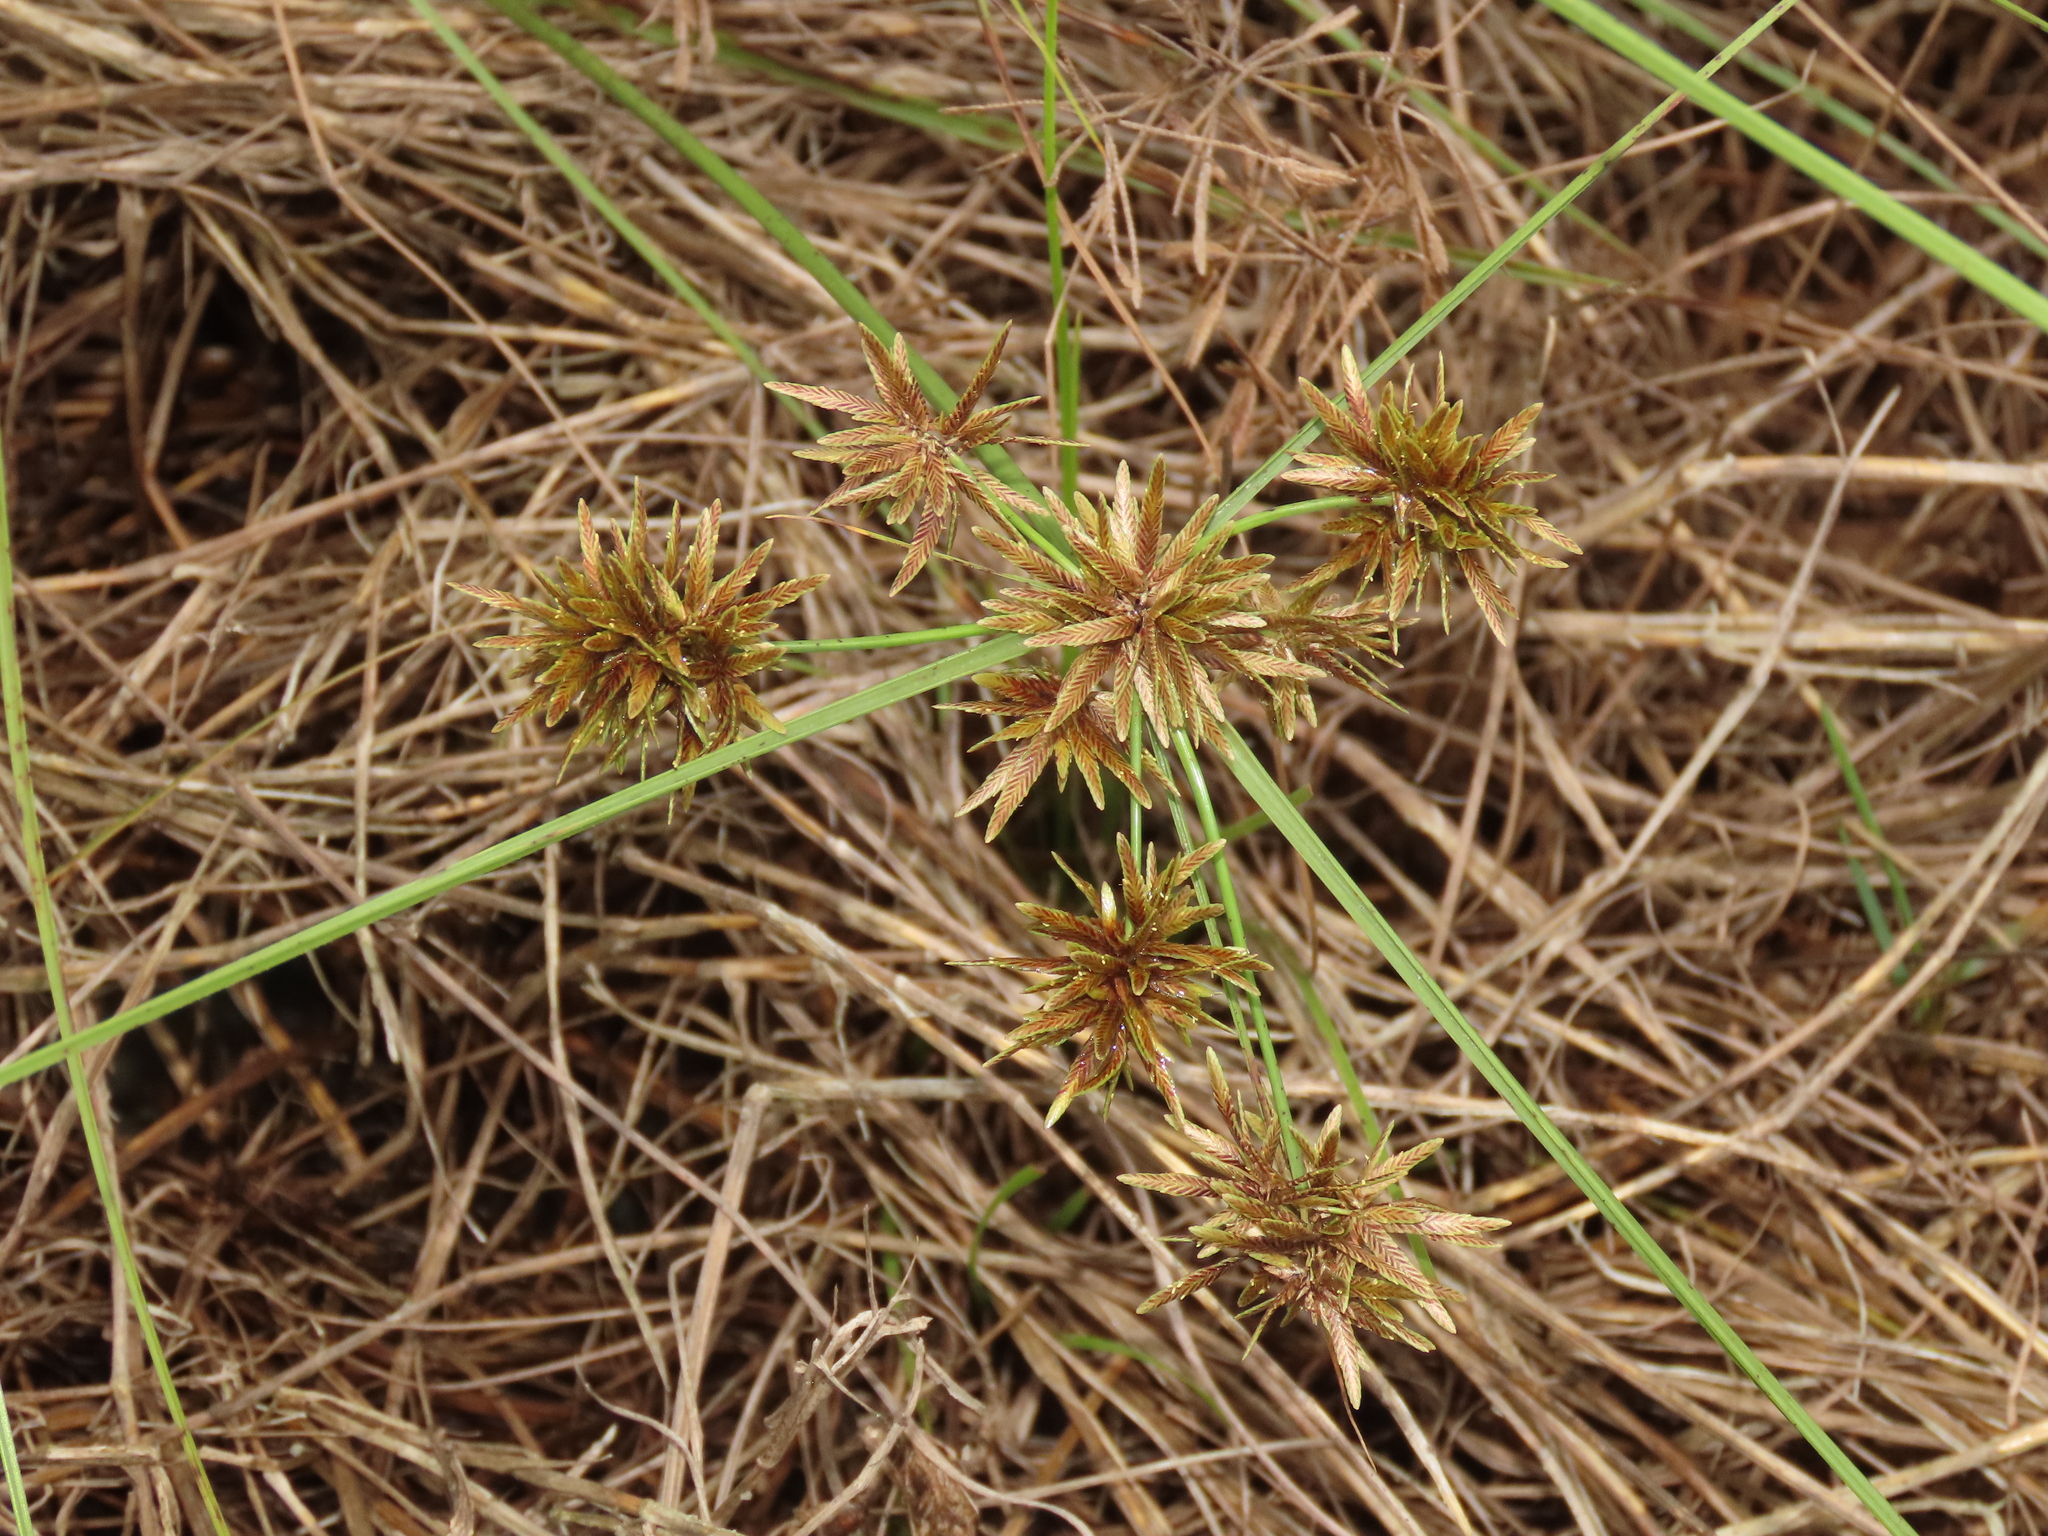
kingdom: Plantae
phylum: Tracheophyta
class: Liliopsida
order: Poales
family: Cyperaceae
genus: Cyperus
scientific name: Cyperus flavidus
